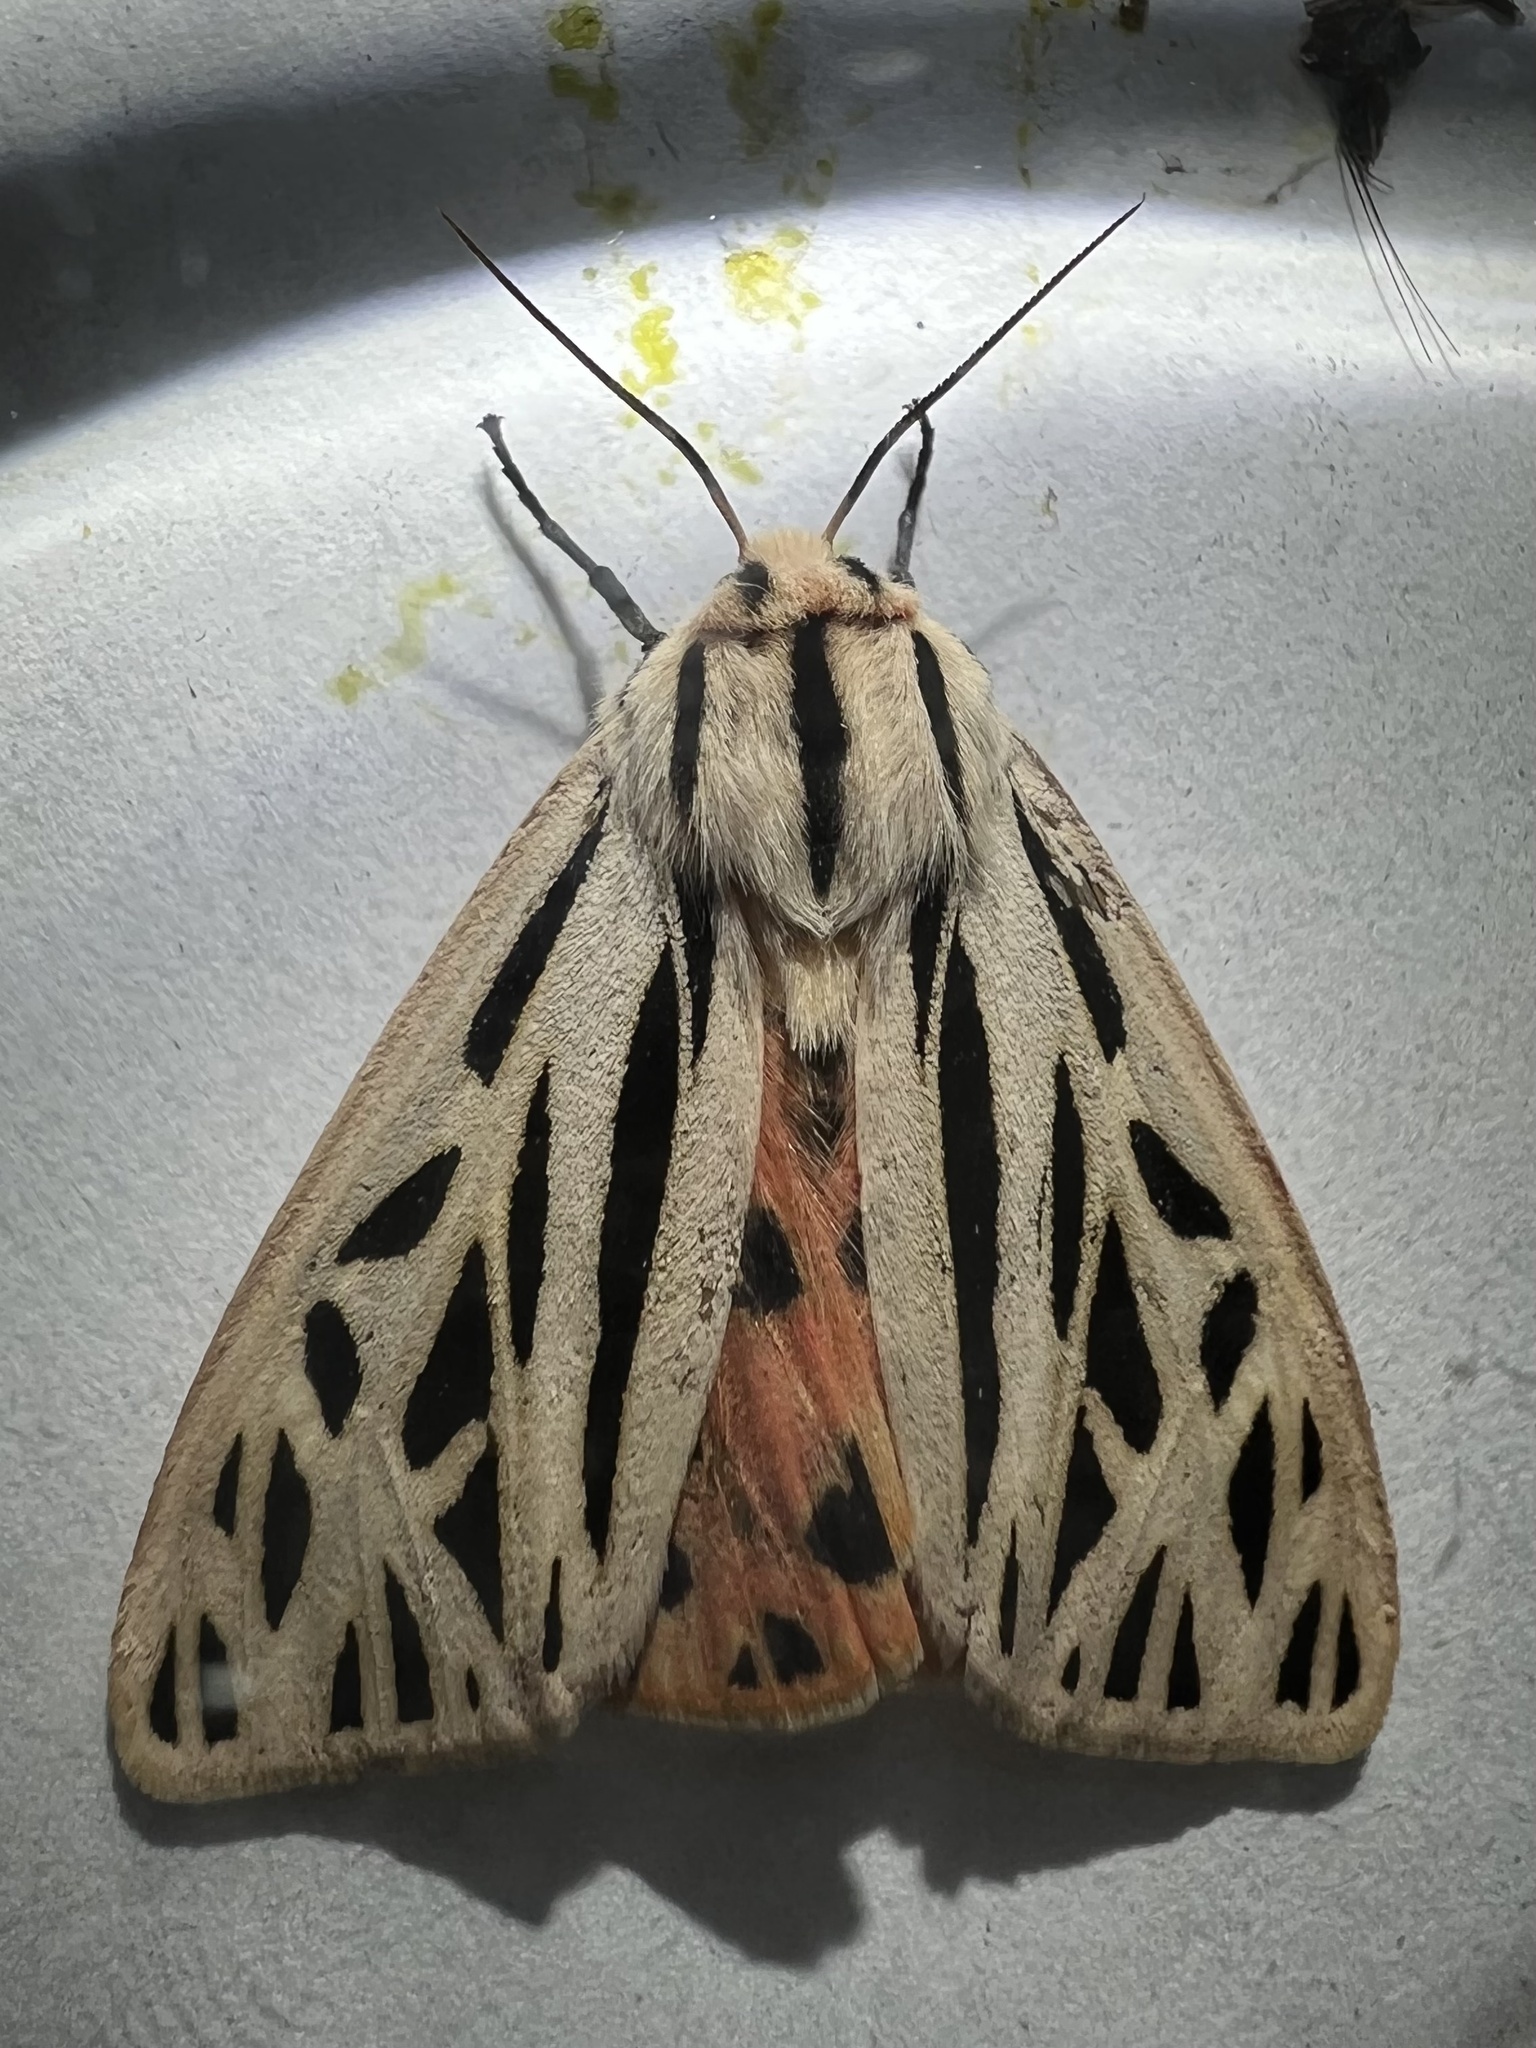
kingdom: Animalia
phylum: Arthropoda
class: Insecta
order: Lepidoptera
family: Erebidae
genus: Apantesis
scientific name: Apantesis arge
